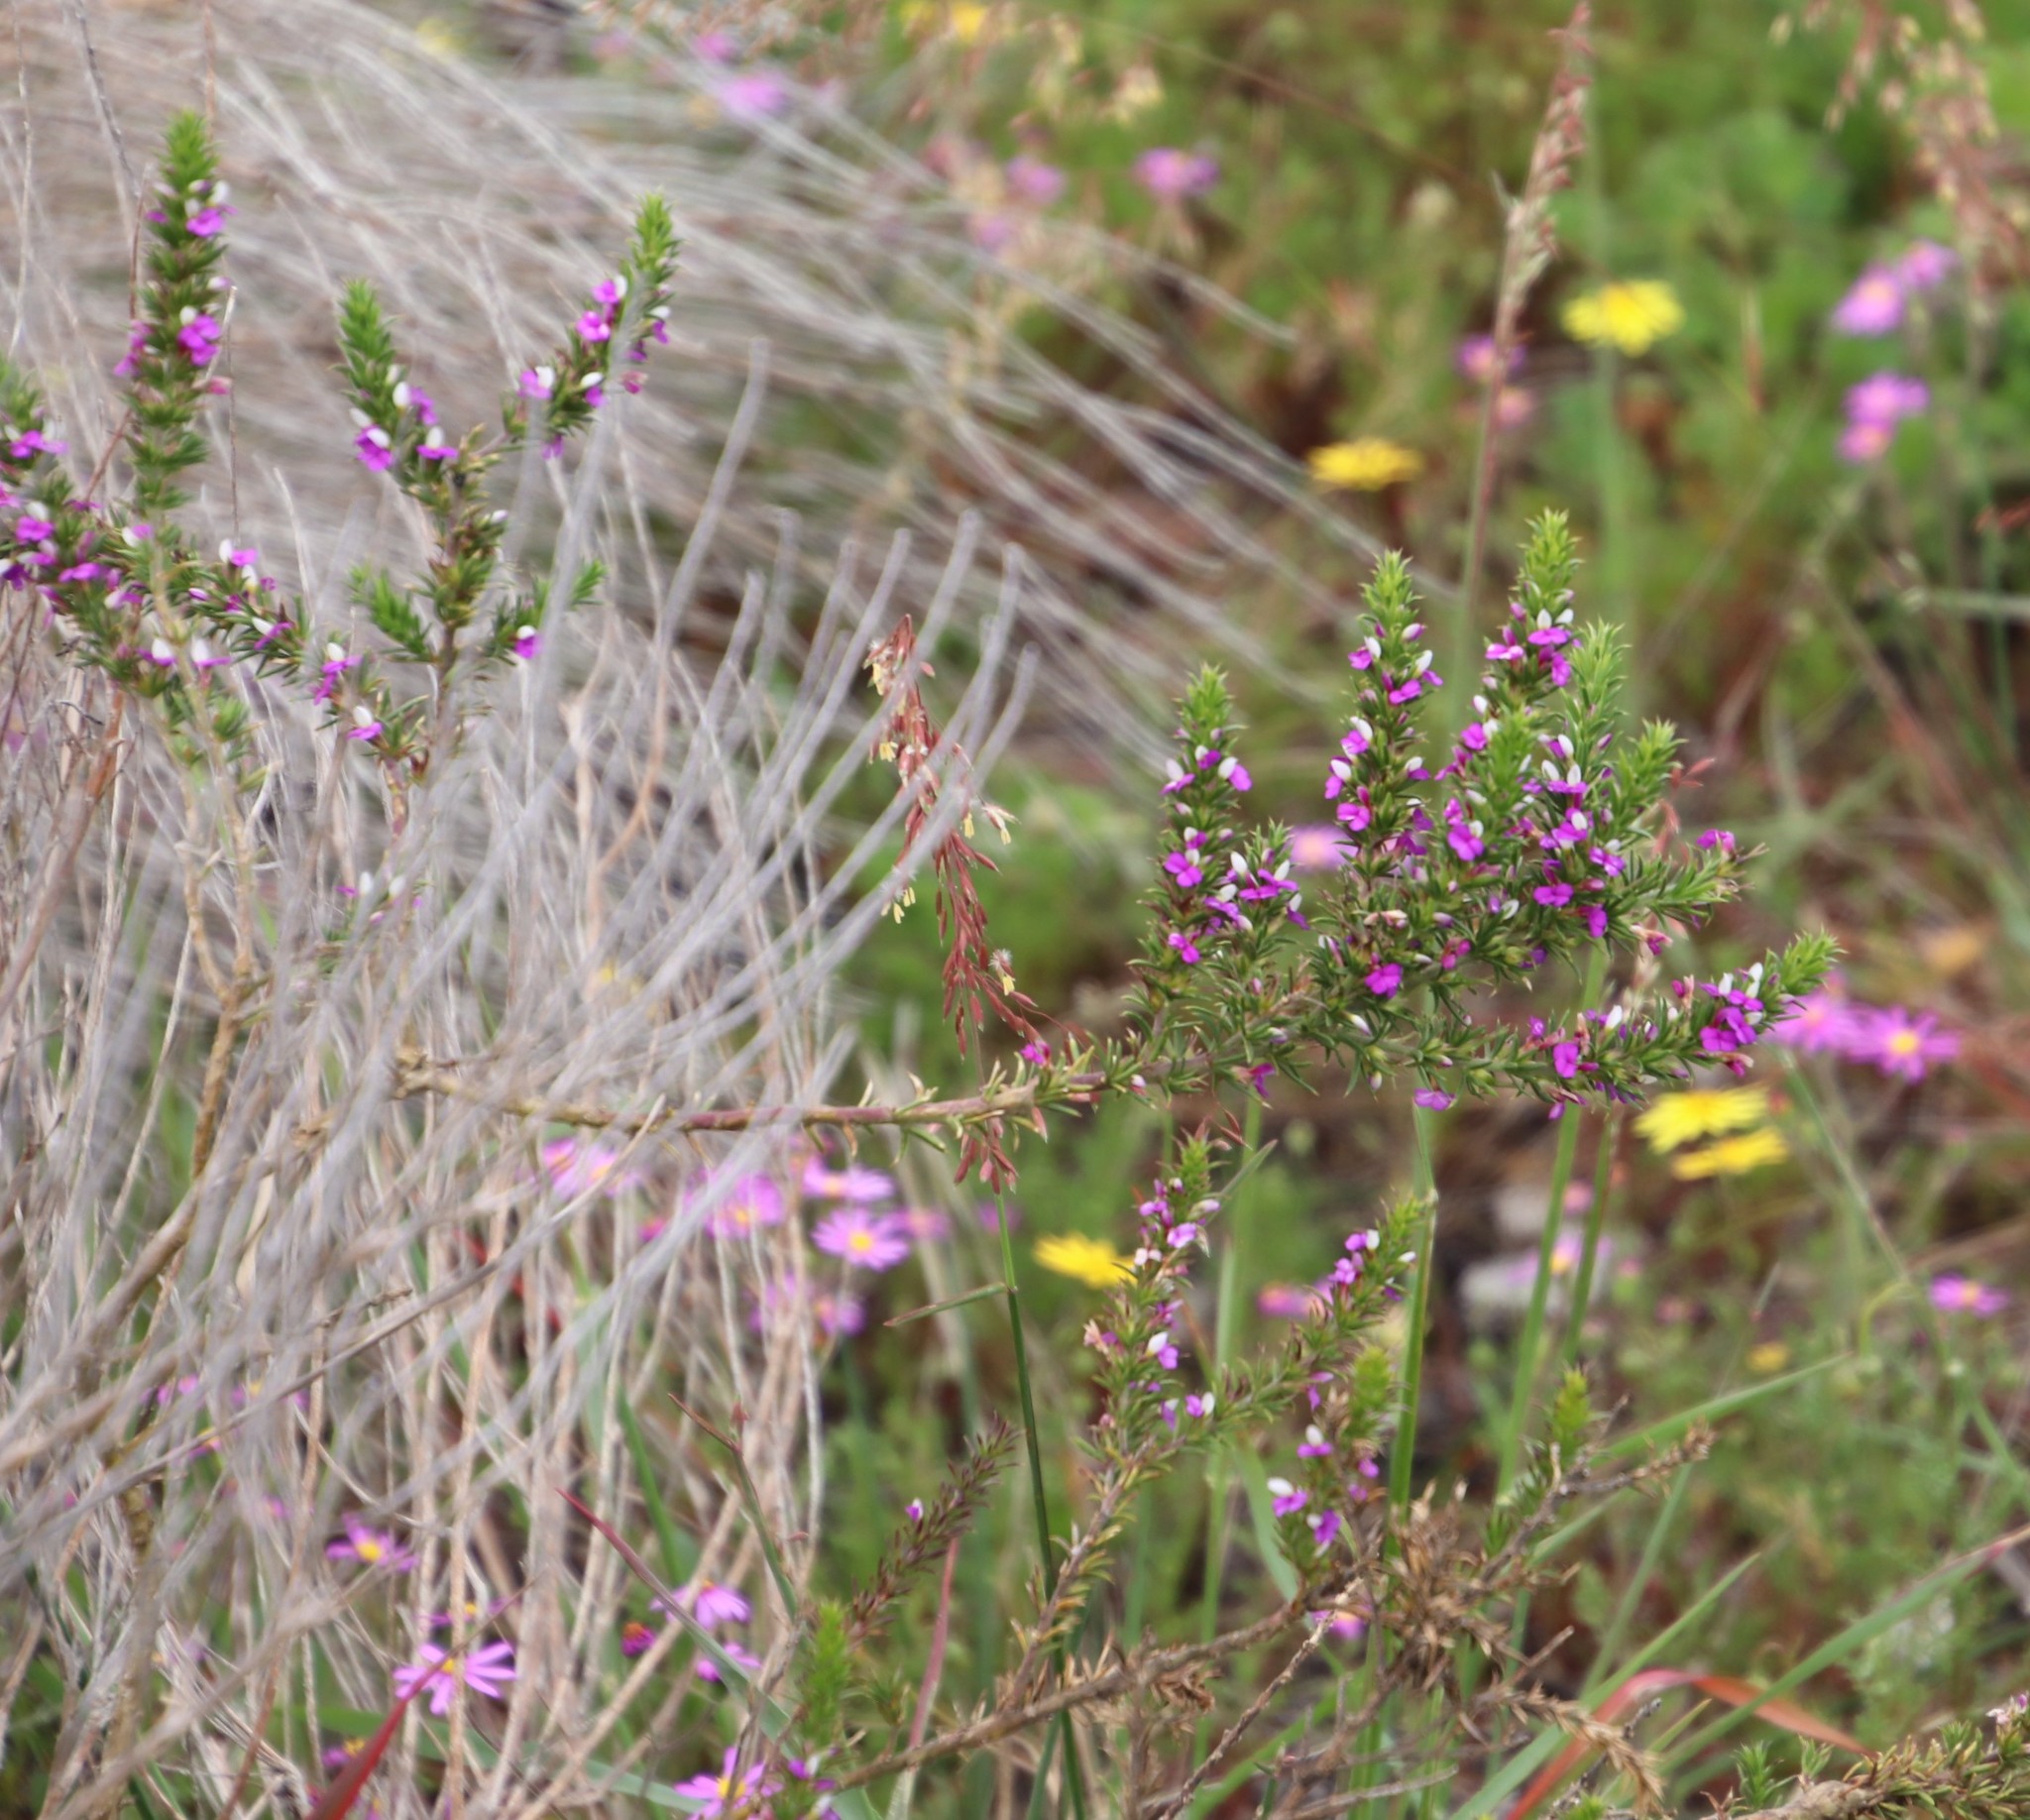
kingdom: Plantae
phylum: Tracheophyta
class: Magnoliopsida
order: Fabales
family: Polygalaceae
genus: Muraltia
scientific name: Muraltia heisteria
